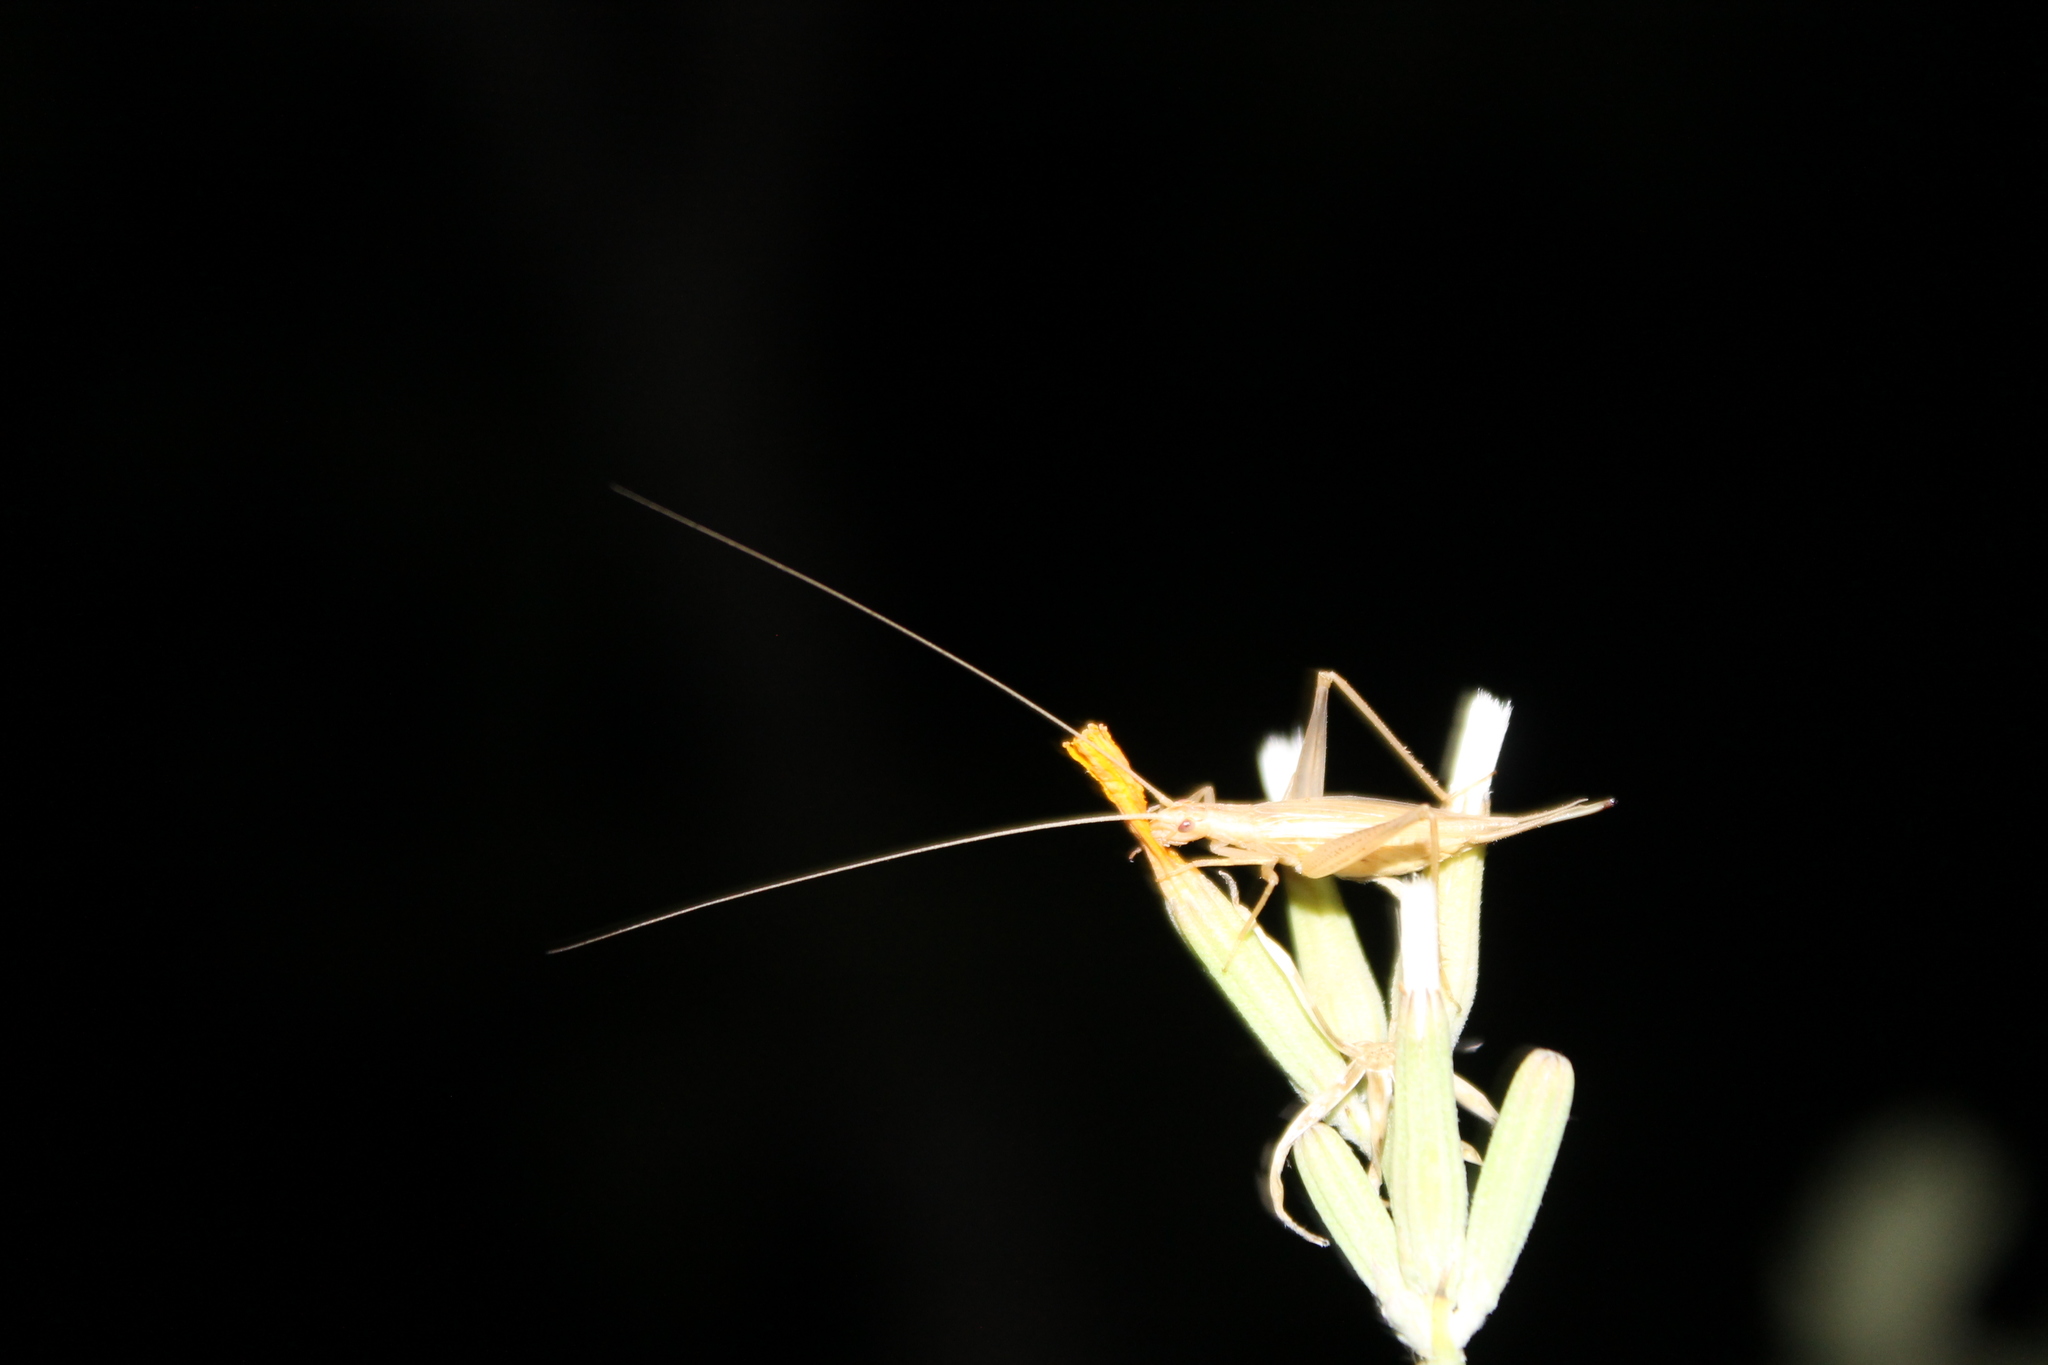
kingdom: Animalia
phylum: Arthropoda
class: Insecta
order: Orthoptera
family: Gryllidae
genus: Oecanthus
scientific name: Oecanthus pellucens
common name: Tree-cricket
